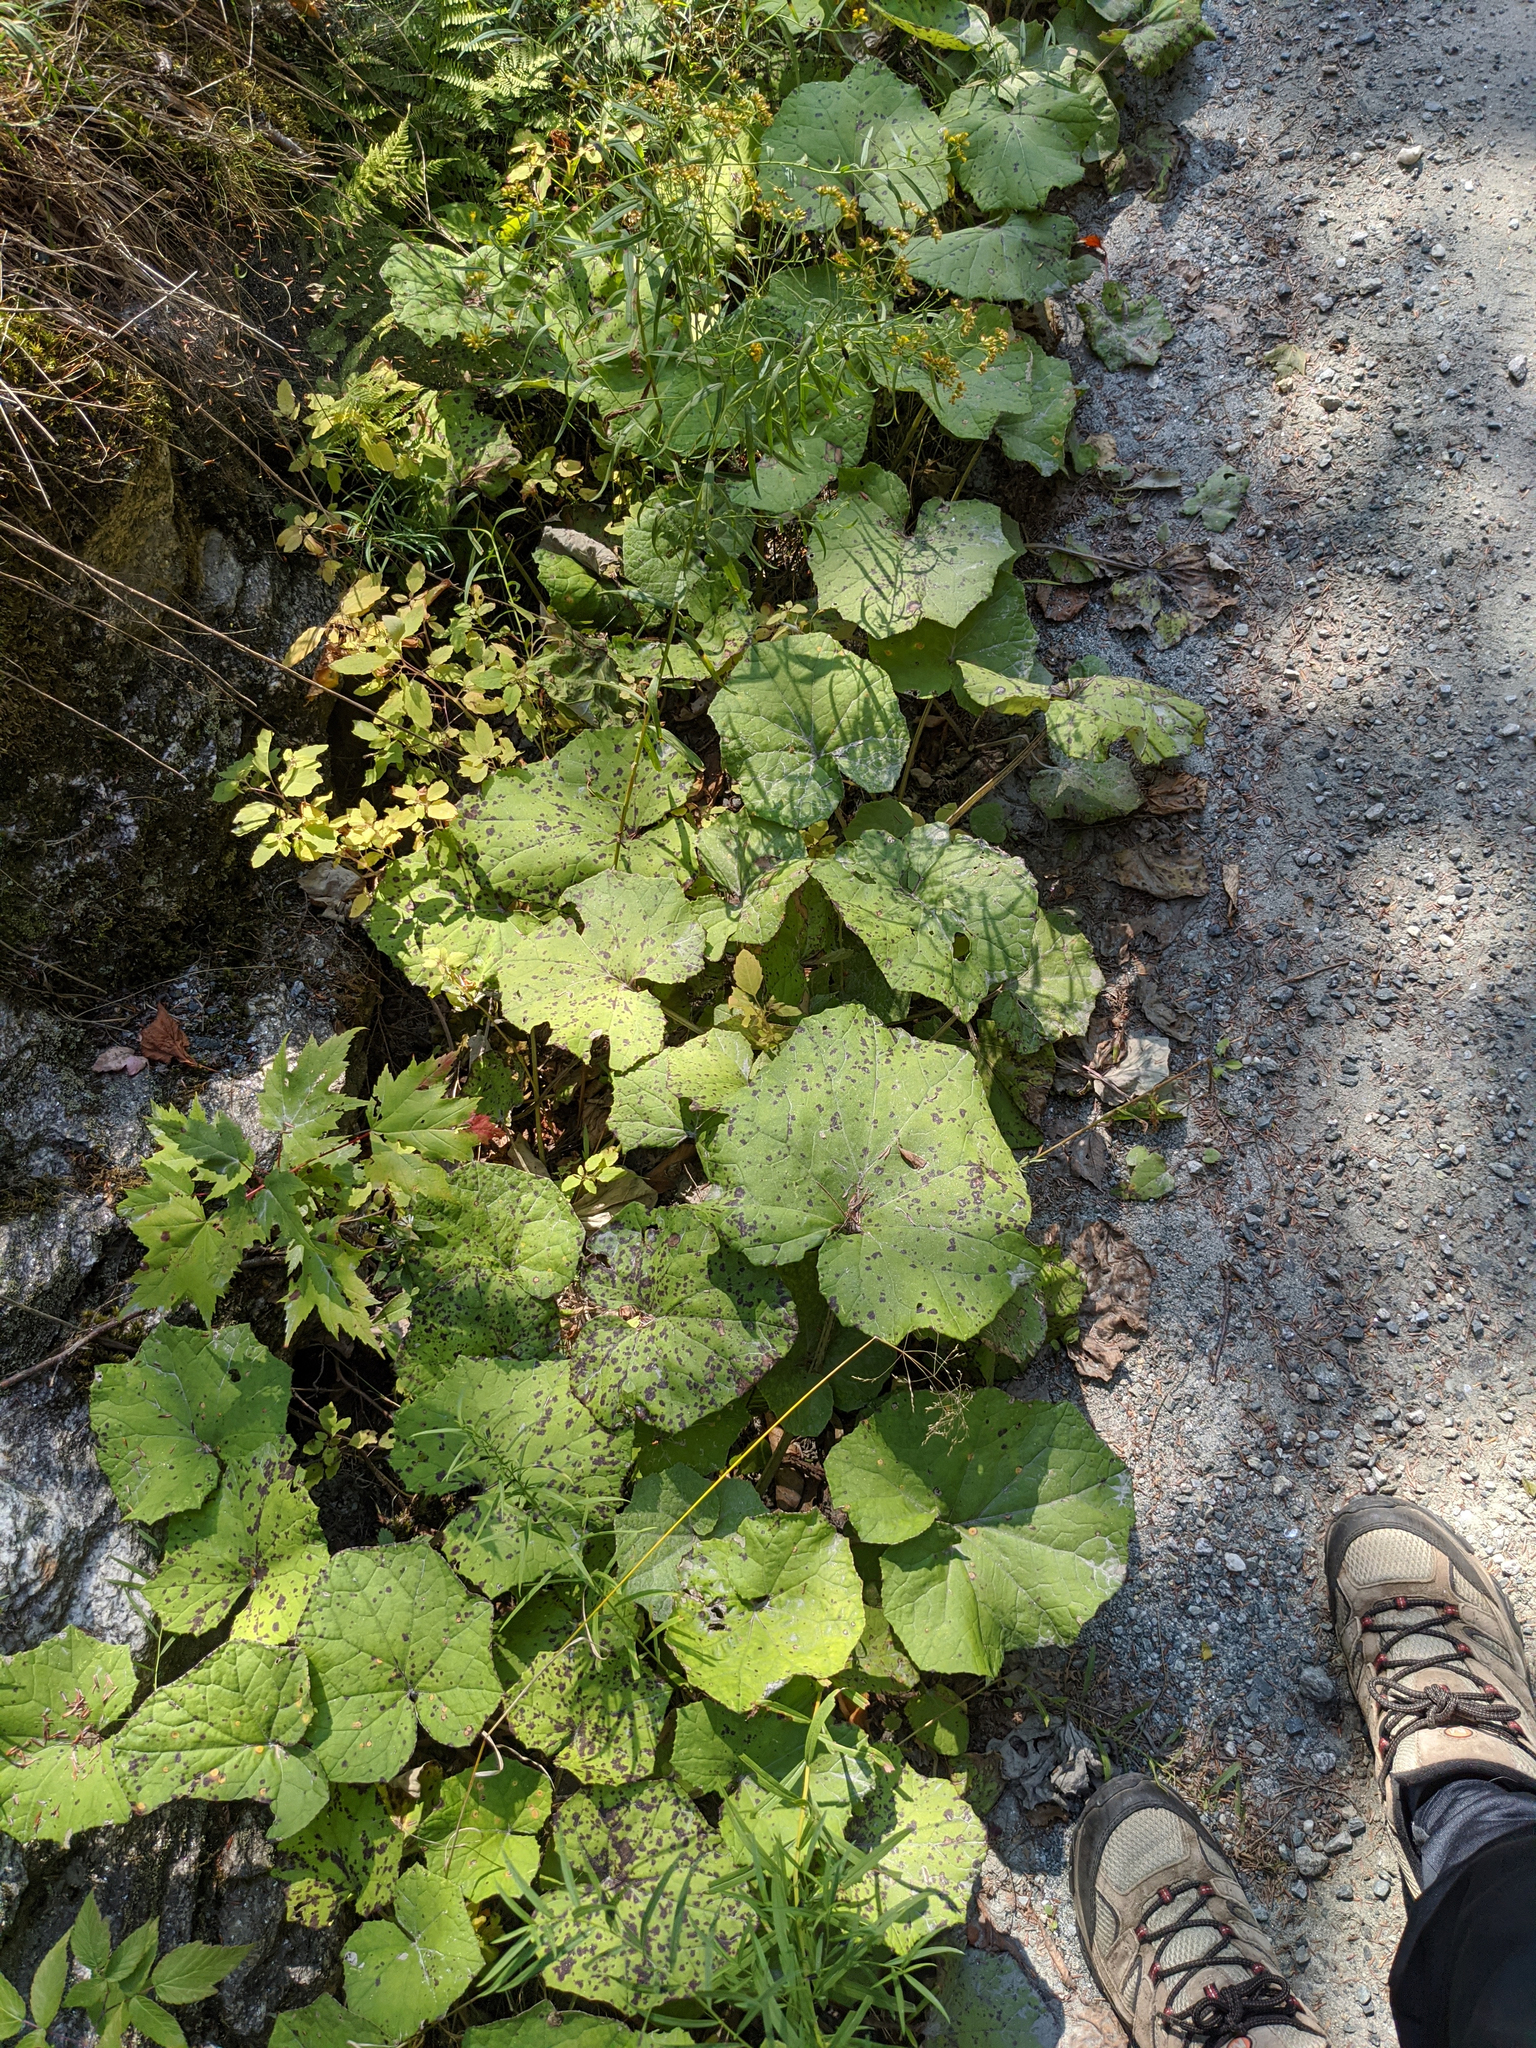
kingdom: Plantae
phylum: Tracheophyta
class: Magnoliopsida
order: Asterales
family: Asteraceae
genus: Tussilago
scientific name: Tussilago farfara
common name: Coltsfoot
